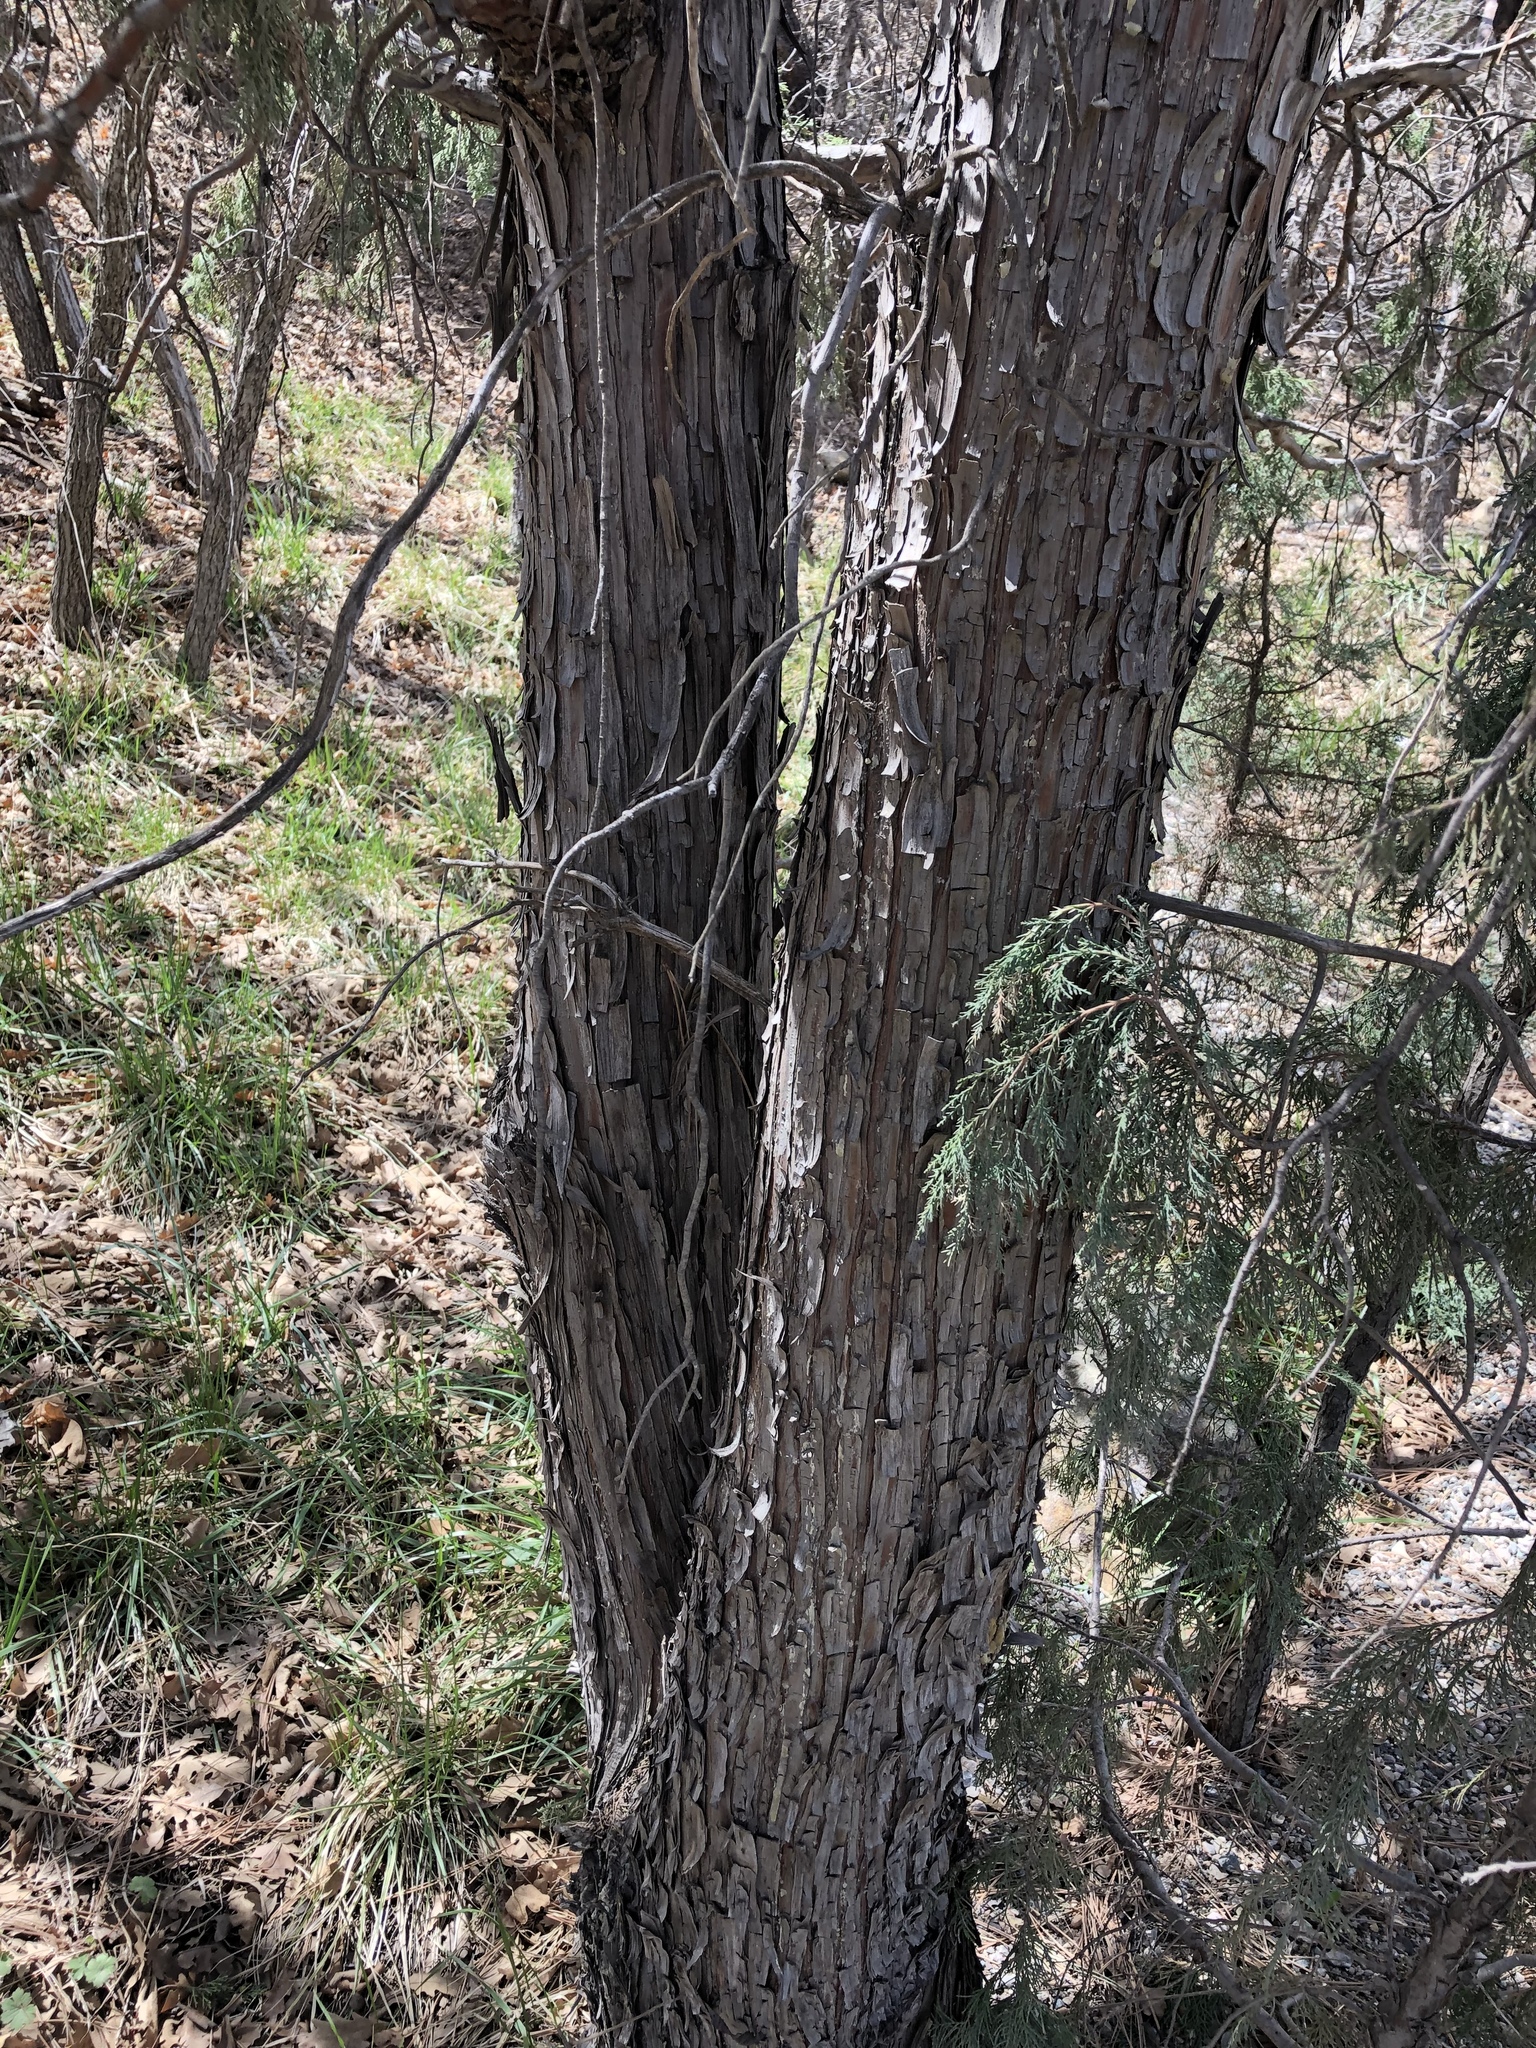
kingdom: Plantae
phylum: Tracheophyta
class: Pinopsida
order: Pinales
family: Cupressaceae
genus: Juniperus
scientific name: Juniperus scopulorum
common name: Rocky mountain juniper
